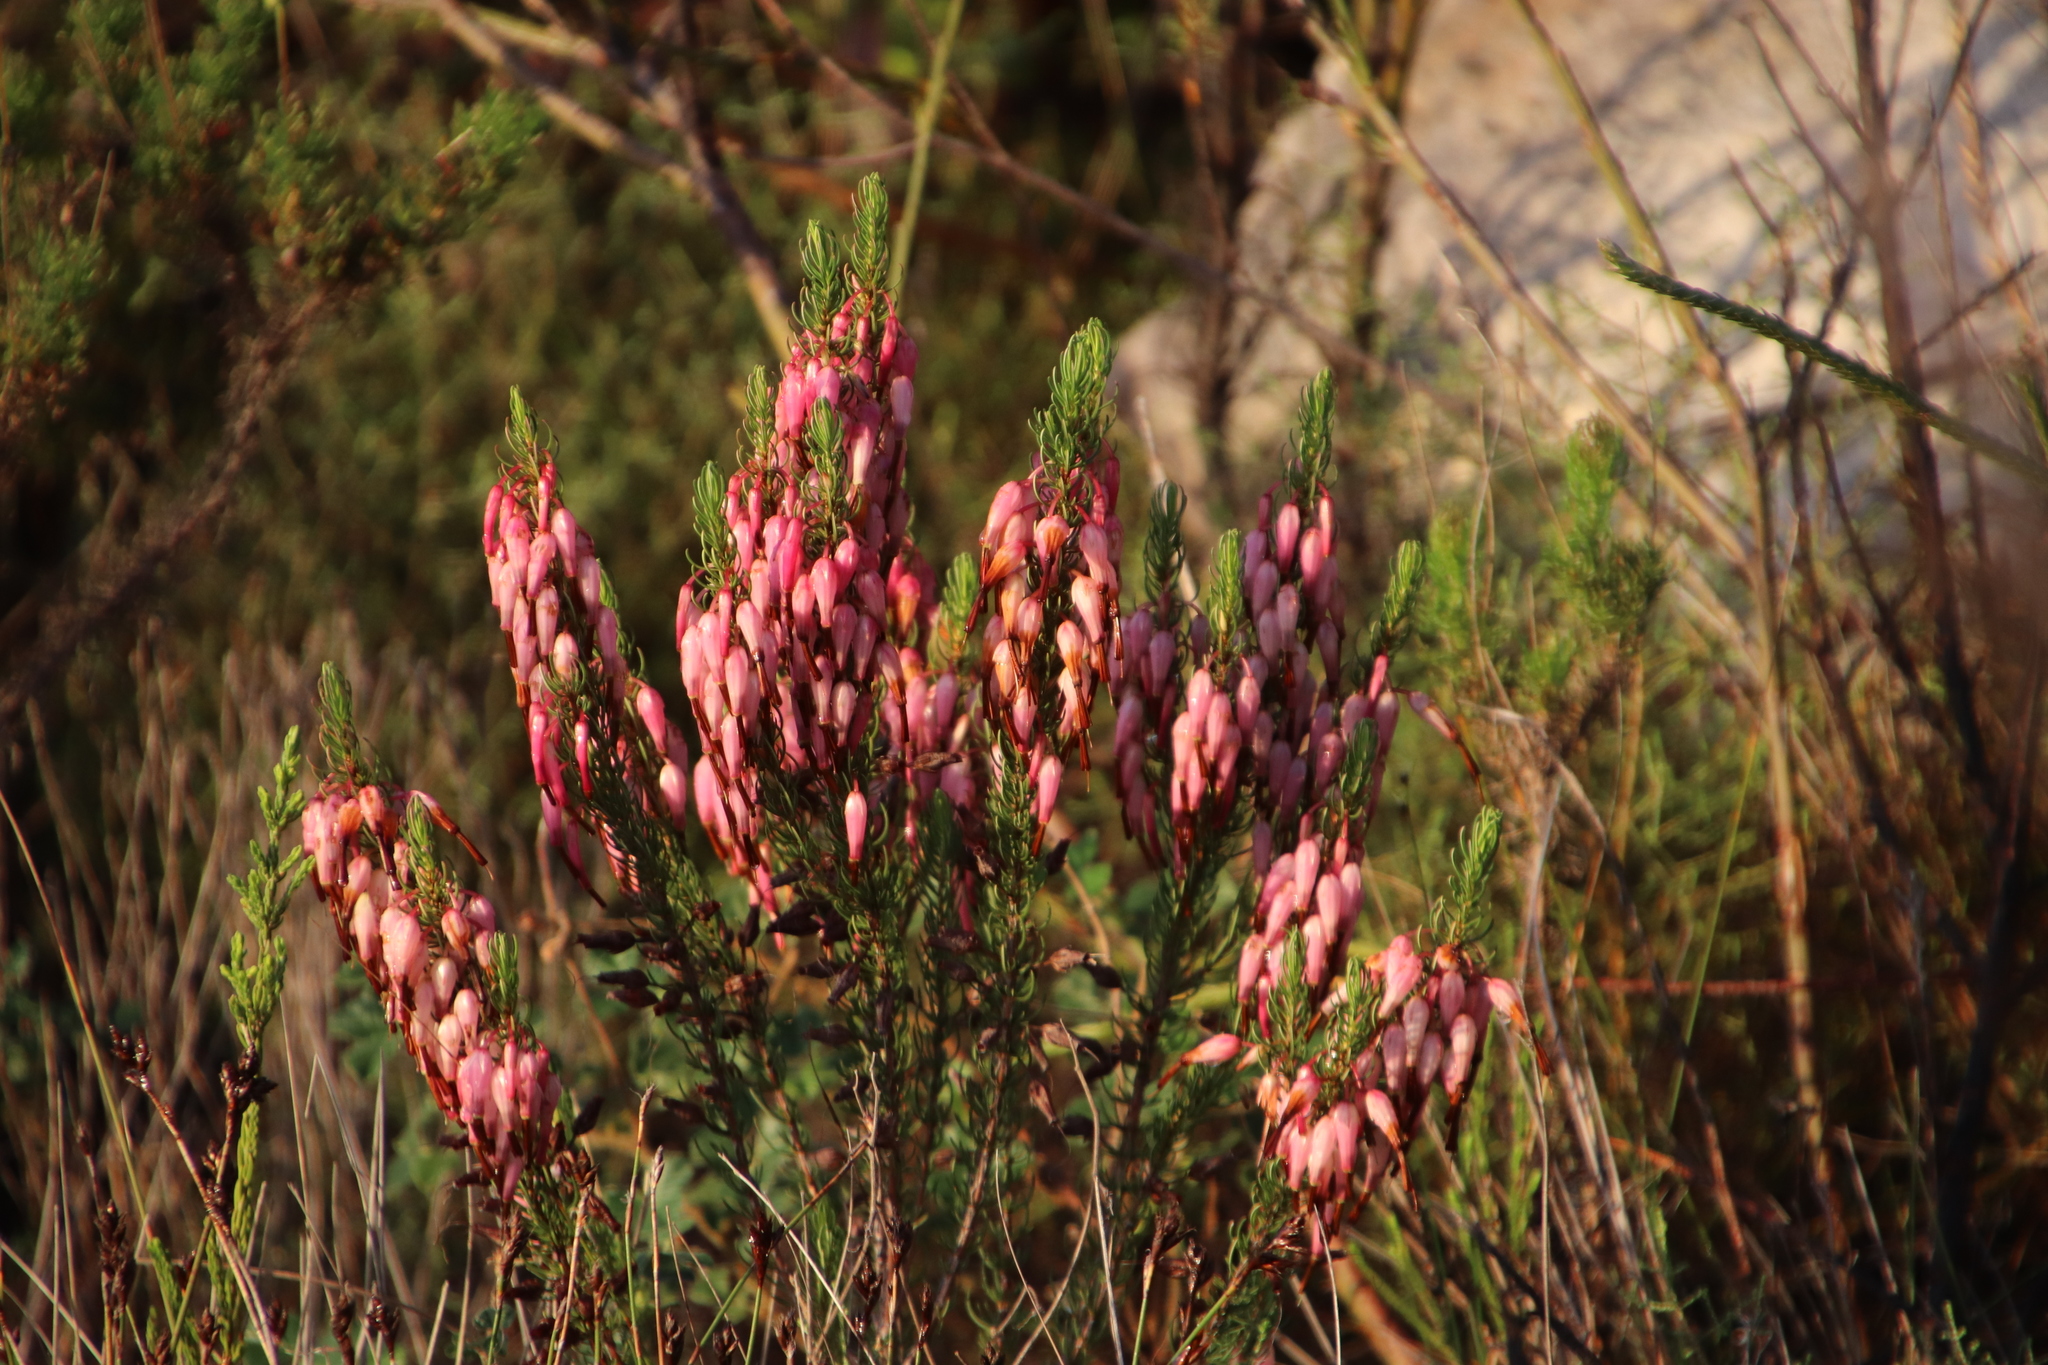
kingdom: Plantae
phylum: Tracheophyta
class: Magnoliopsida
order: Ericales
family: Ericaceae
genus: Erica
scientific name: Erica plukenetii
